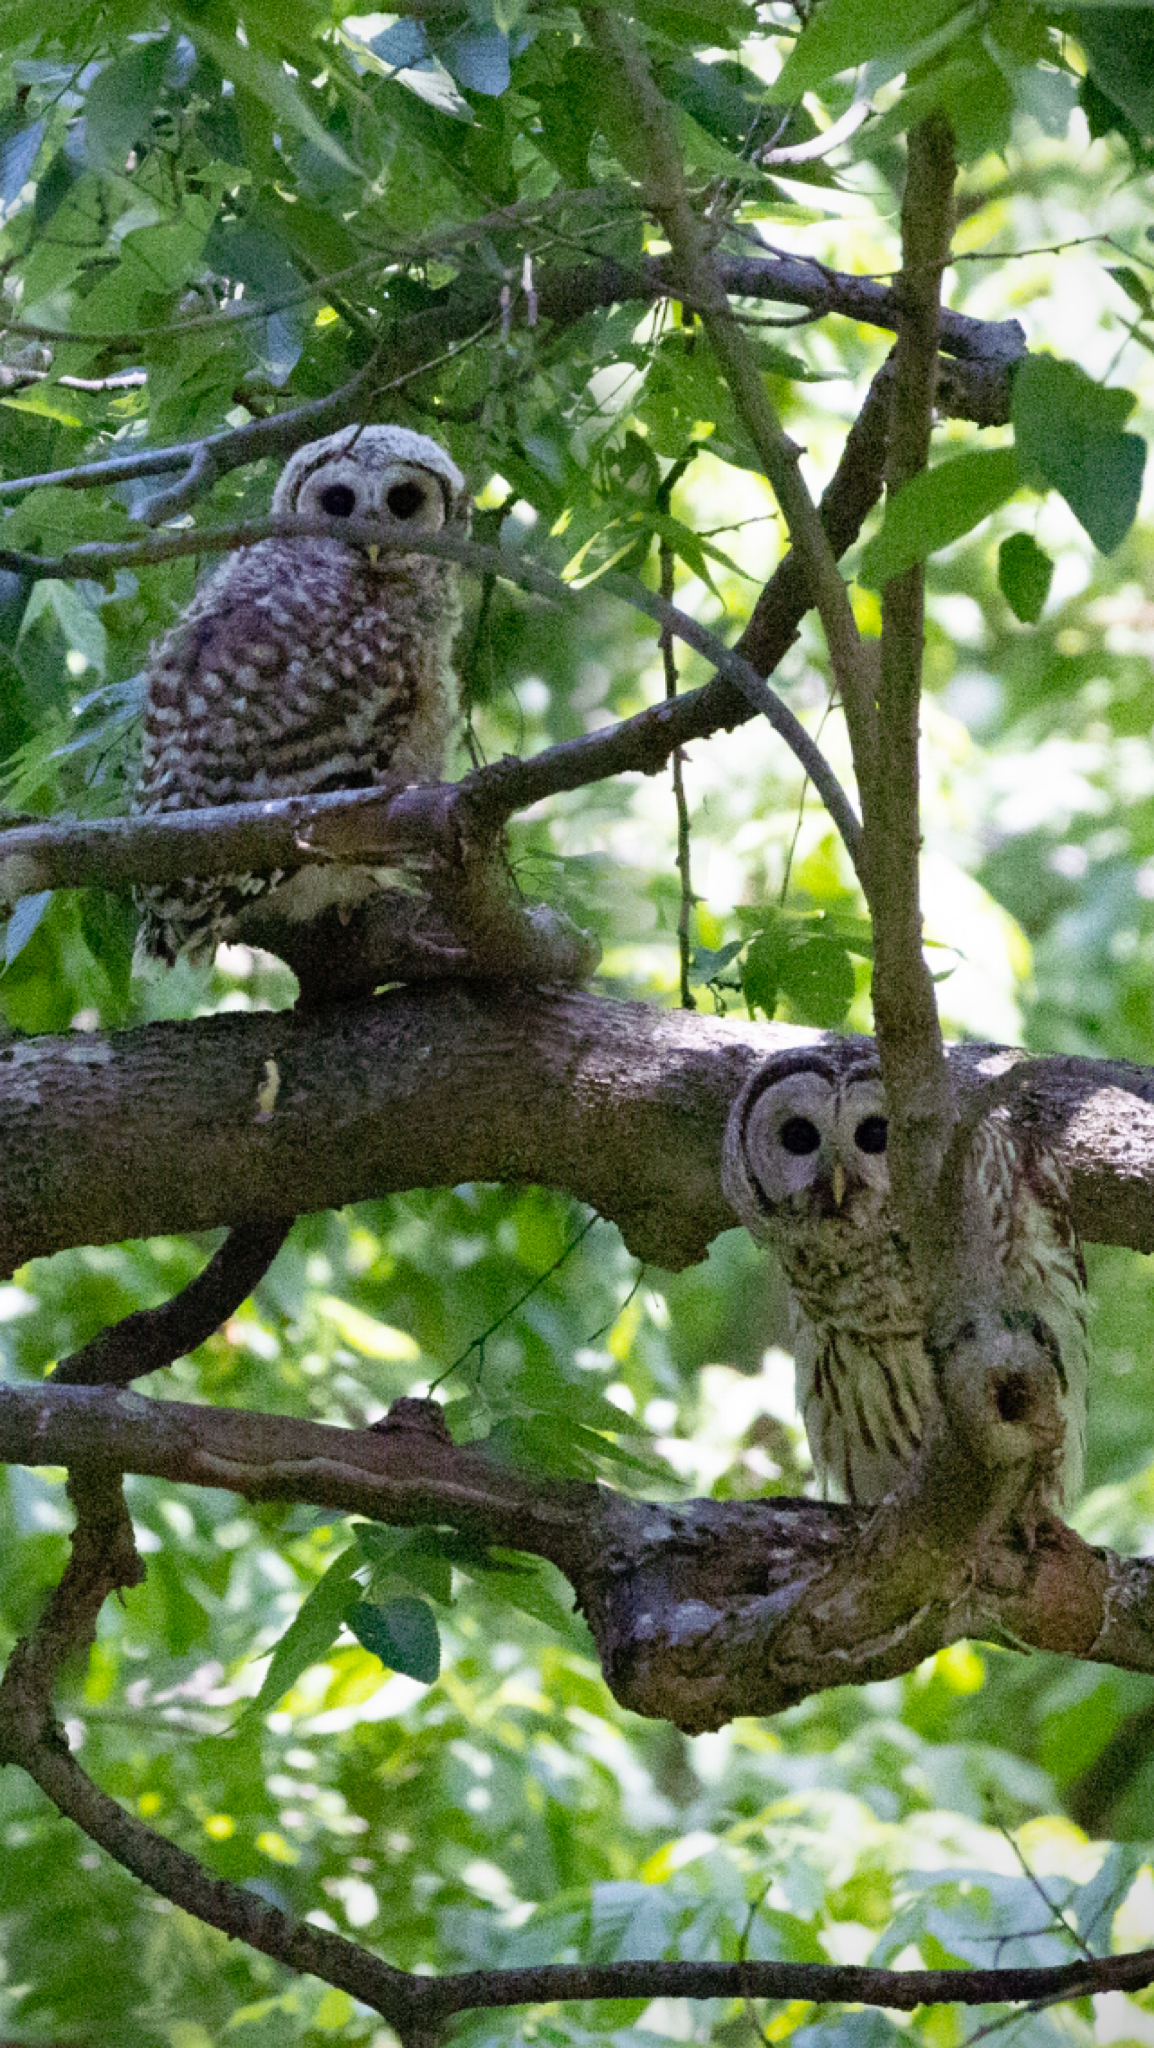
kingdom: Animalia
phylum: Chordata
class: Aves
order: Strigiformes
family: Strigidae
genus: Strix
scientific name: Strix varia
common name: Barred owl
